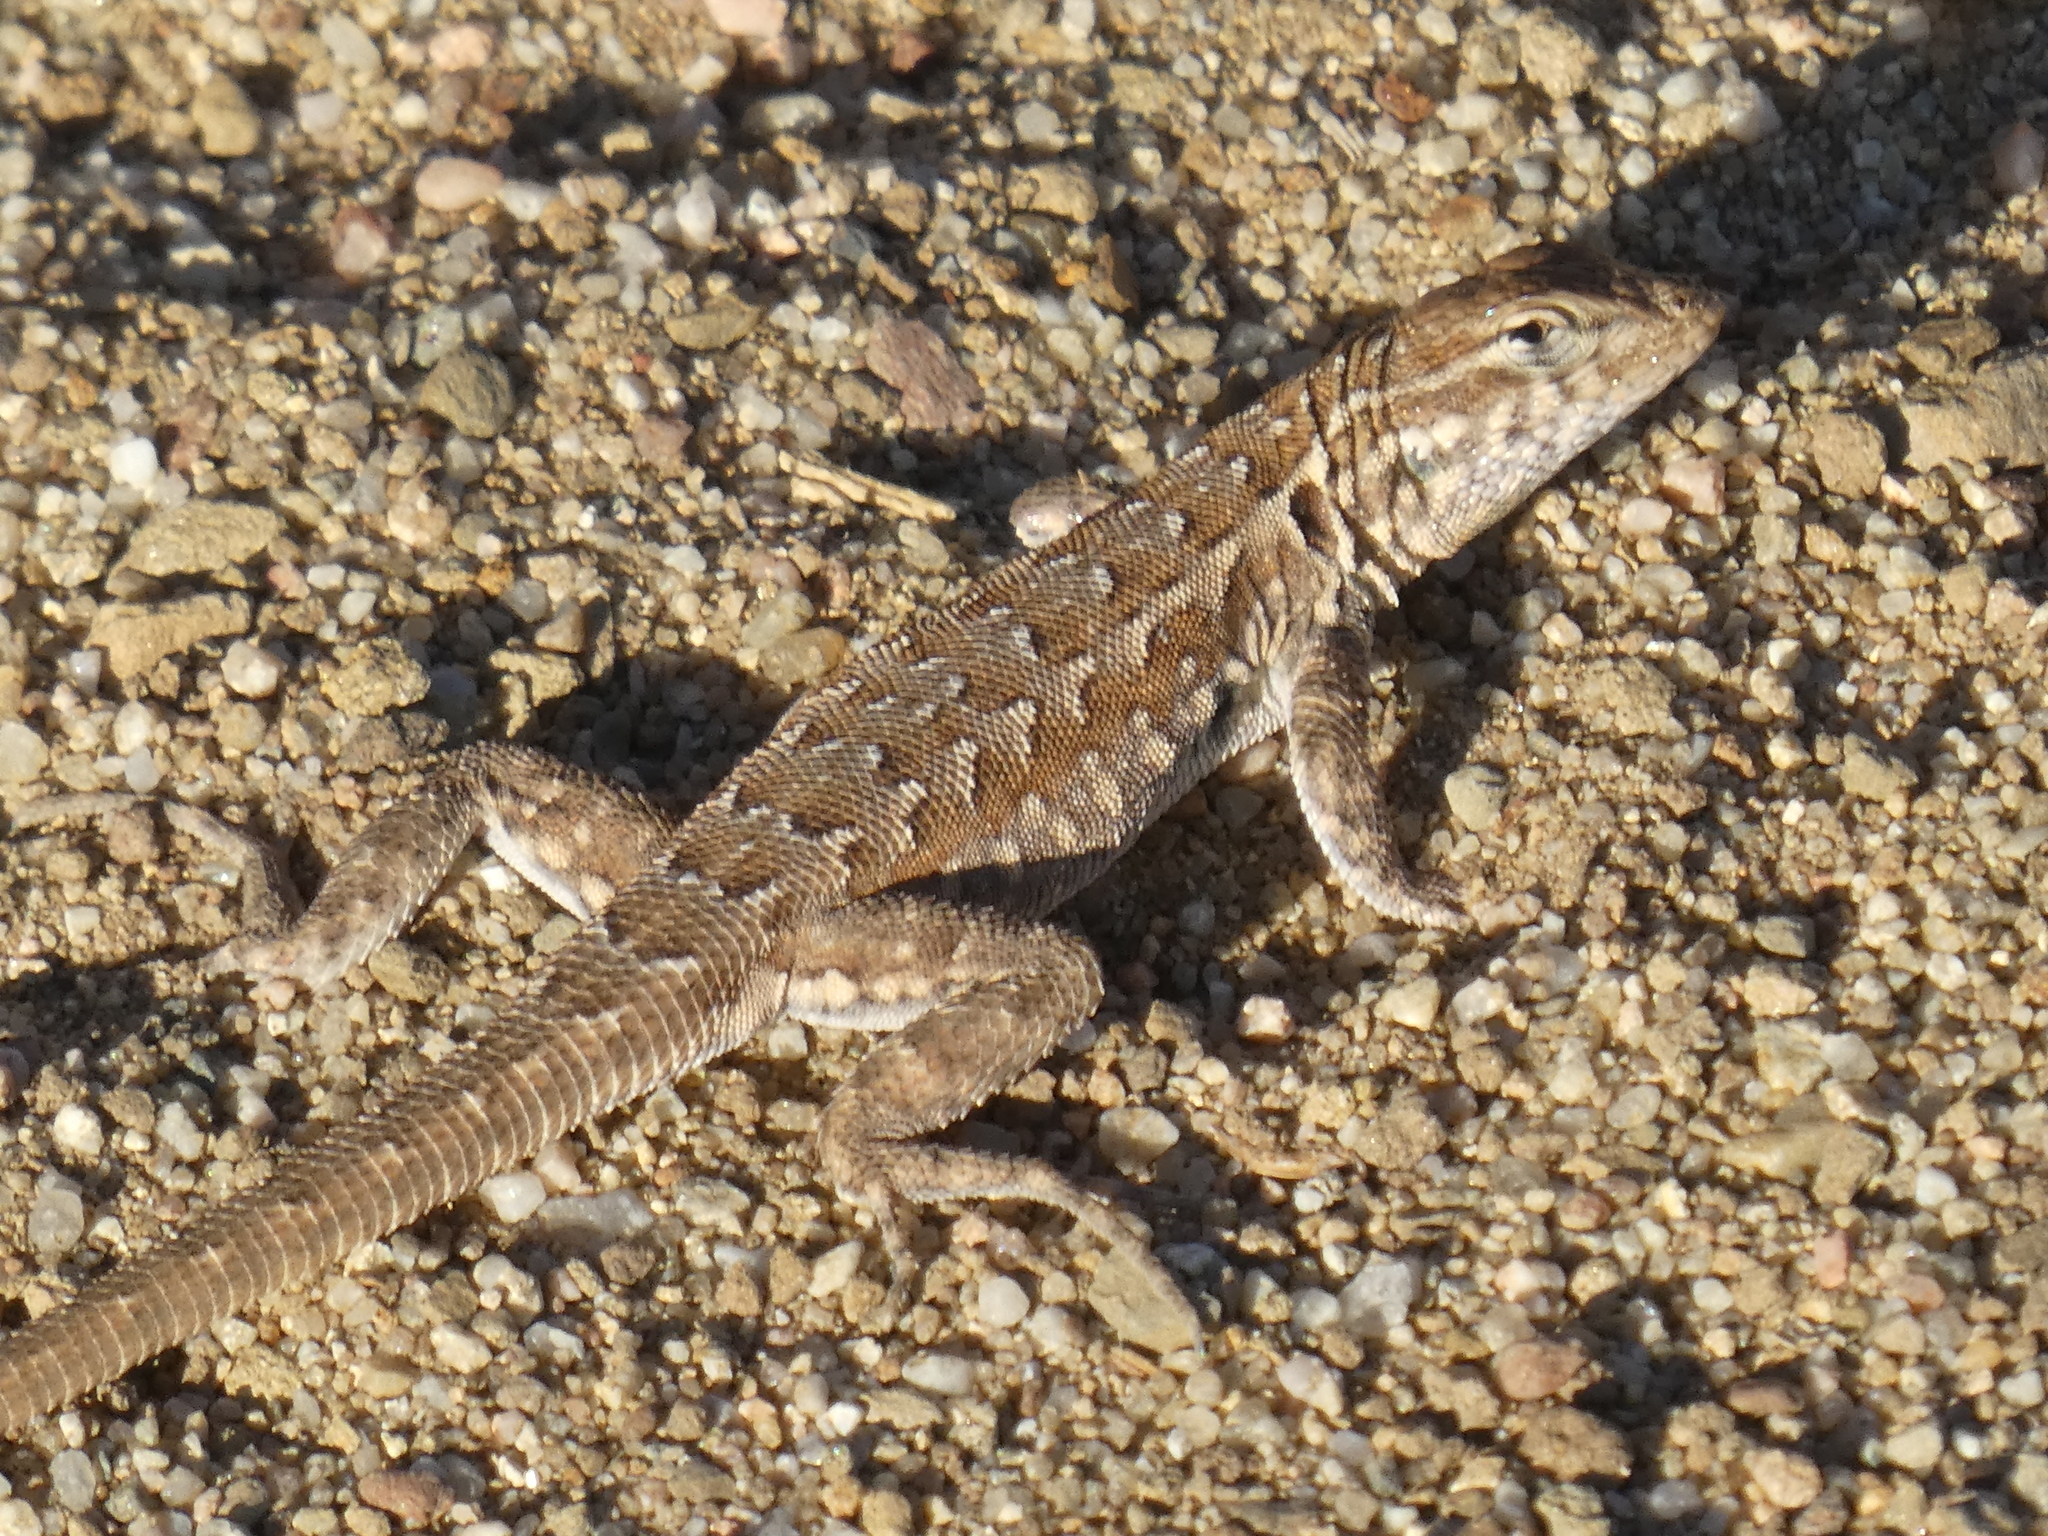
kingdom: Animalia
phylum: Chordata
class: Squamata
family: Phrynosomatidae
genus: Uta
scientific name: Uta stansburiana
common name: Side-blotched lizard
